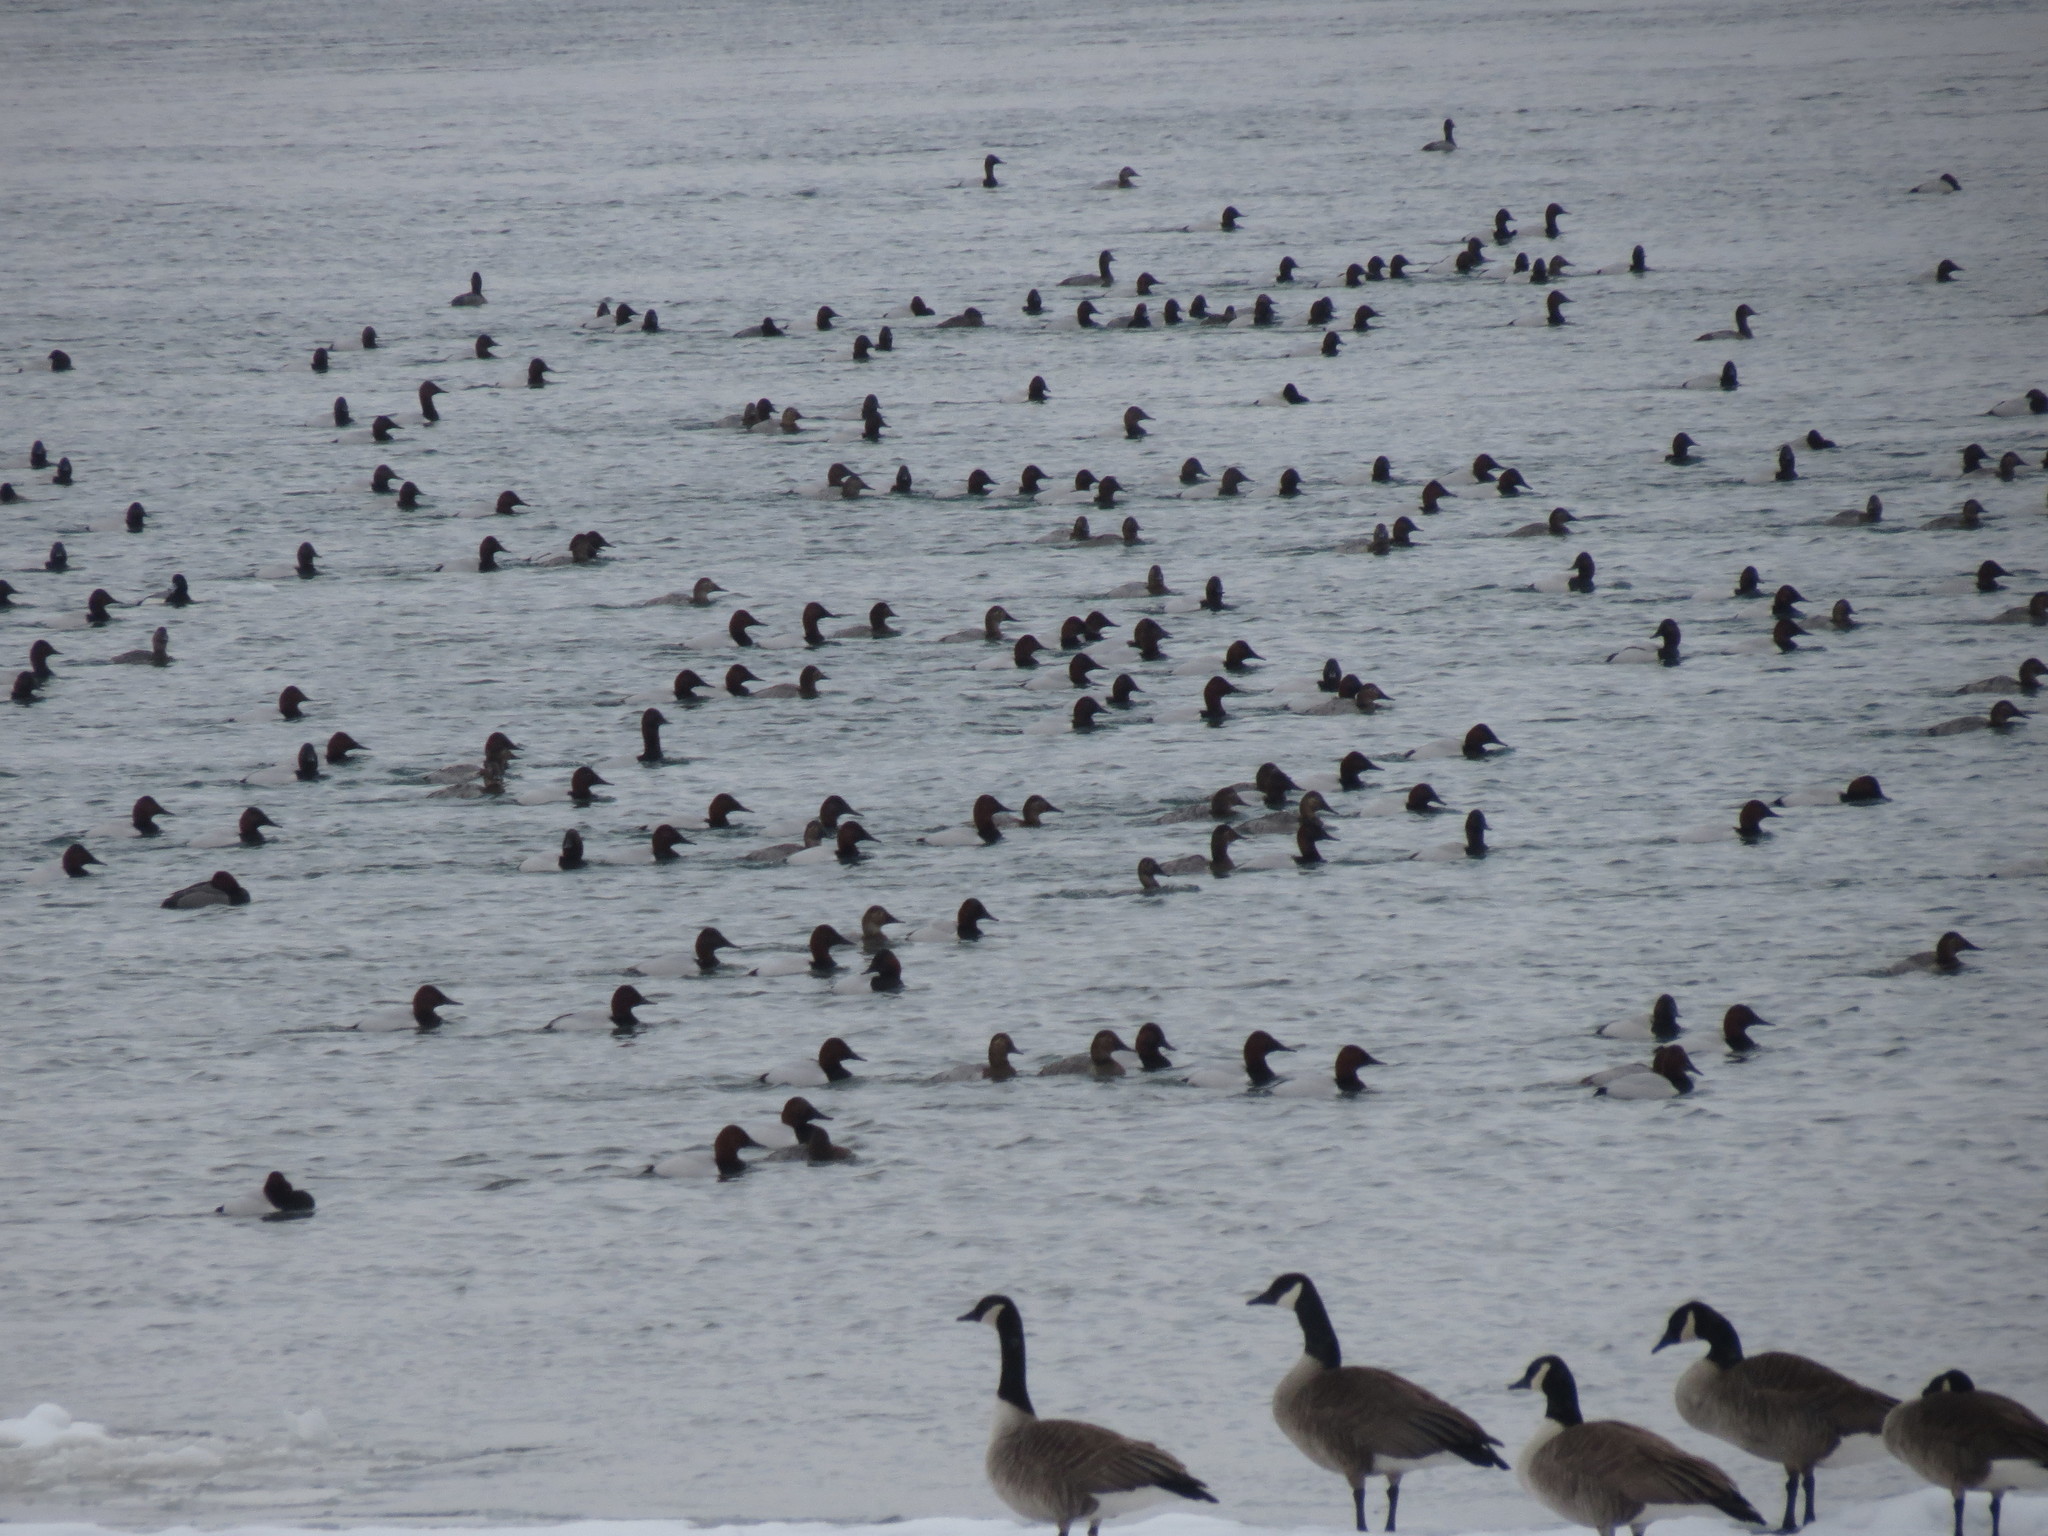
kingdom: Animalia
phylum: Chordata
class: Aves
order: Anseriformes
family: Anatidae
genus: Aythya
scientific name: Aythya valisineria
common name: Canvasback
